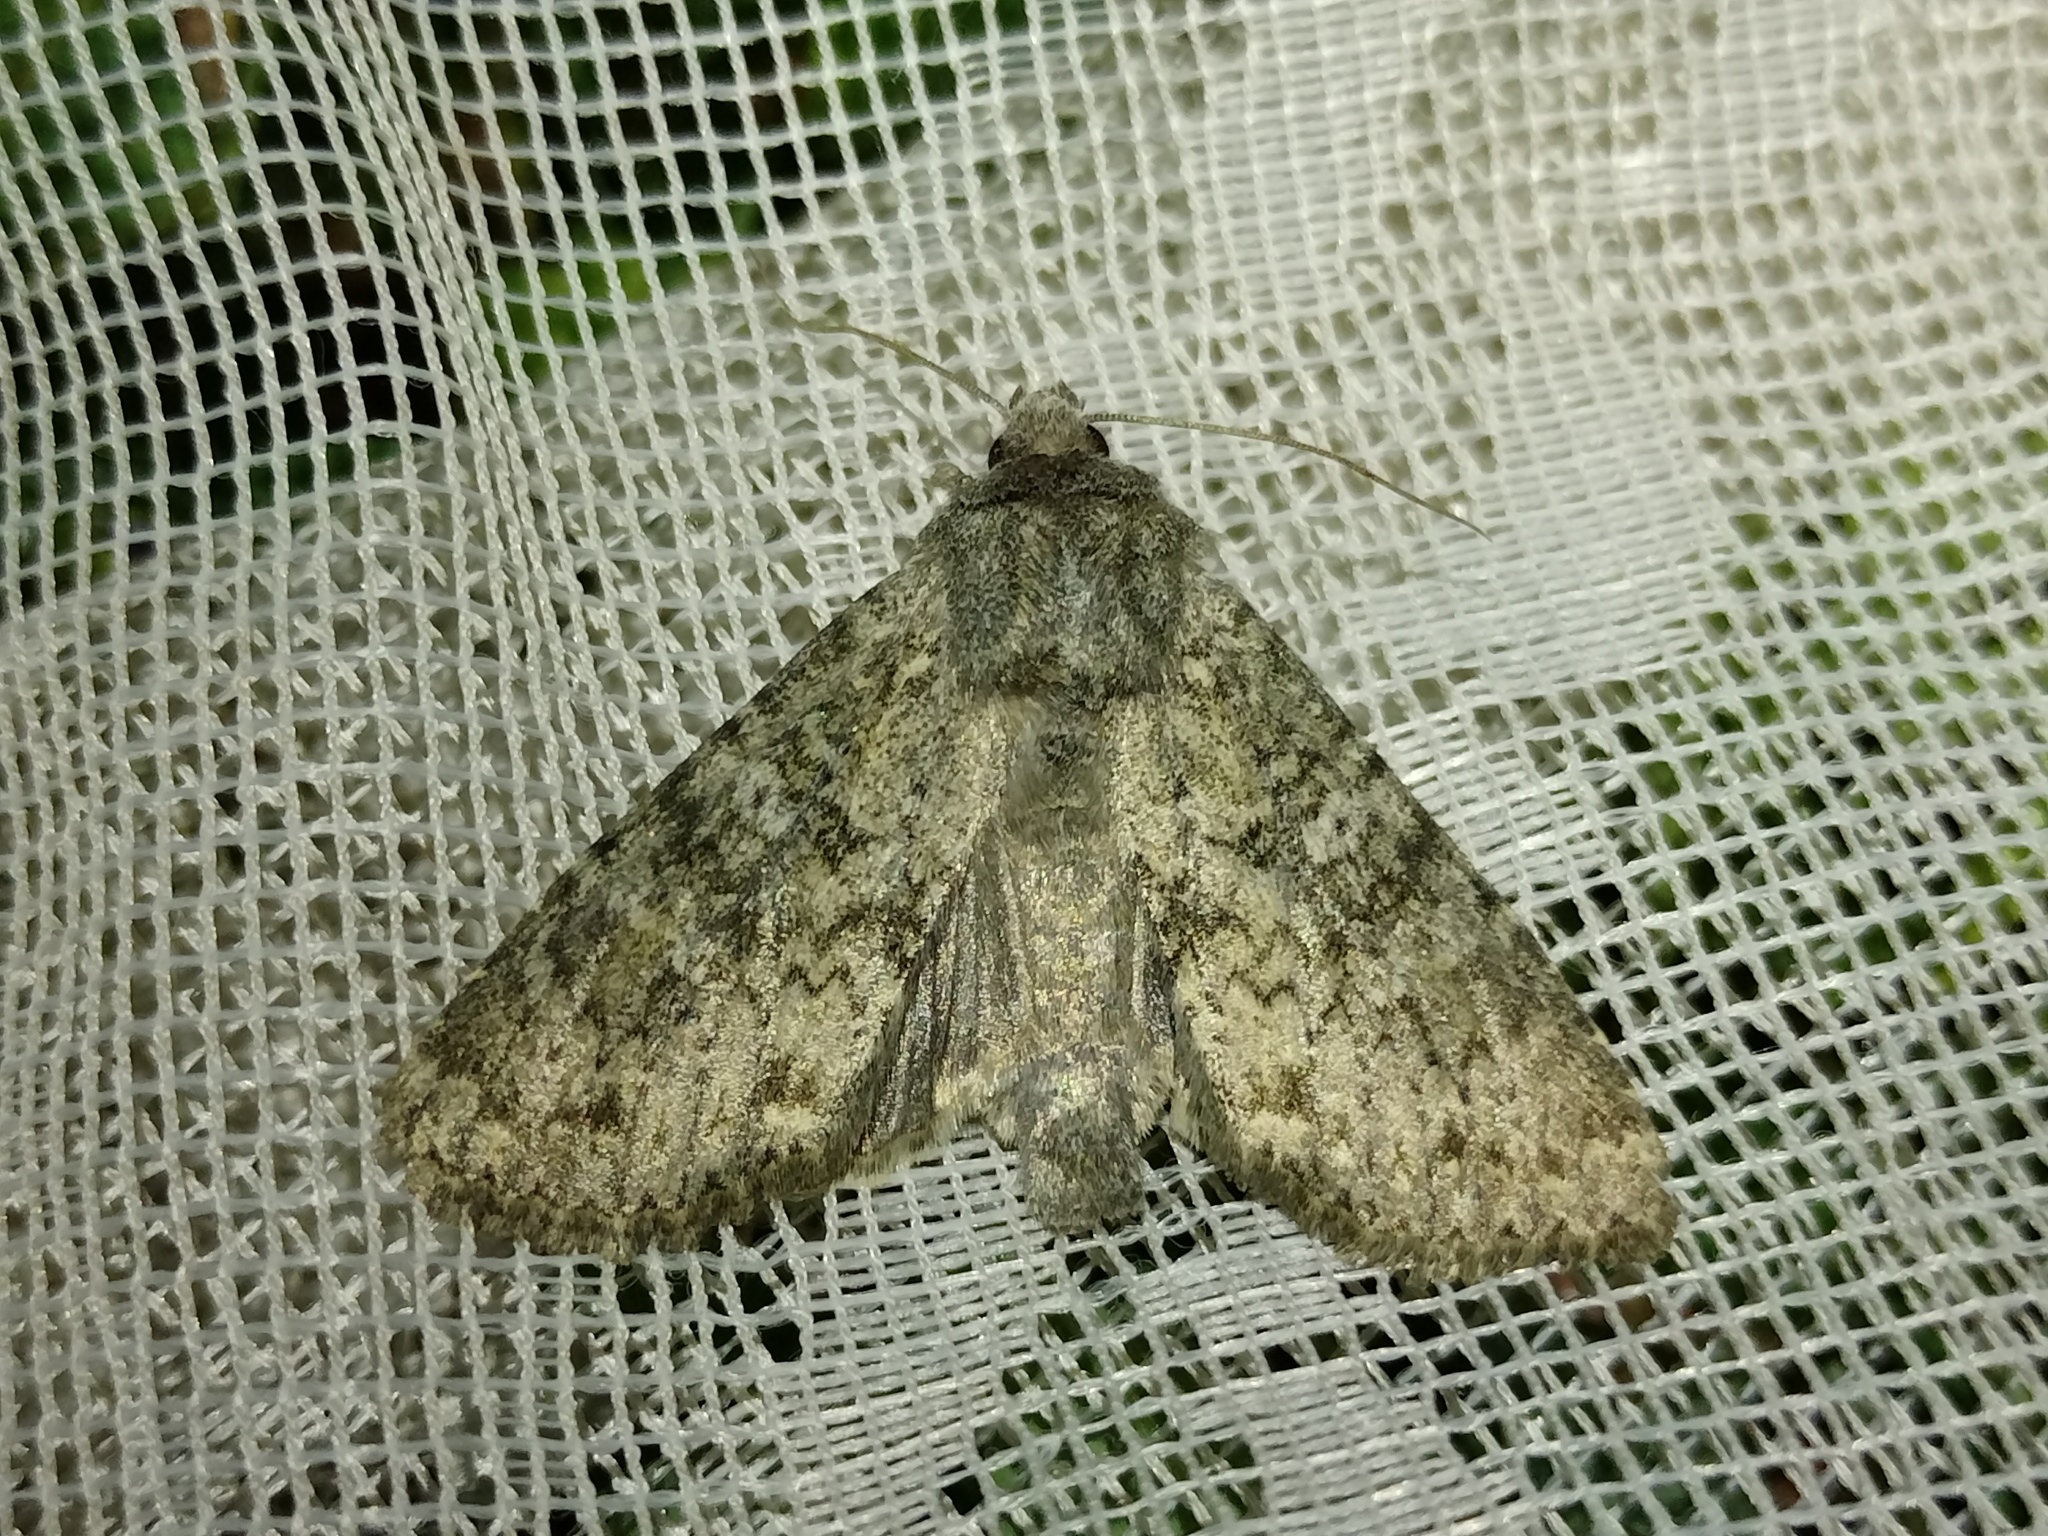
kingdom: Animalia
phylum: Arthropoda
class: Insecta
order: Lepidoptera
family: Noctuidae
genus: Polia
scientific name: Polia serratilinea
